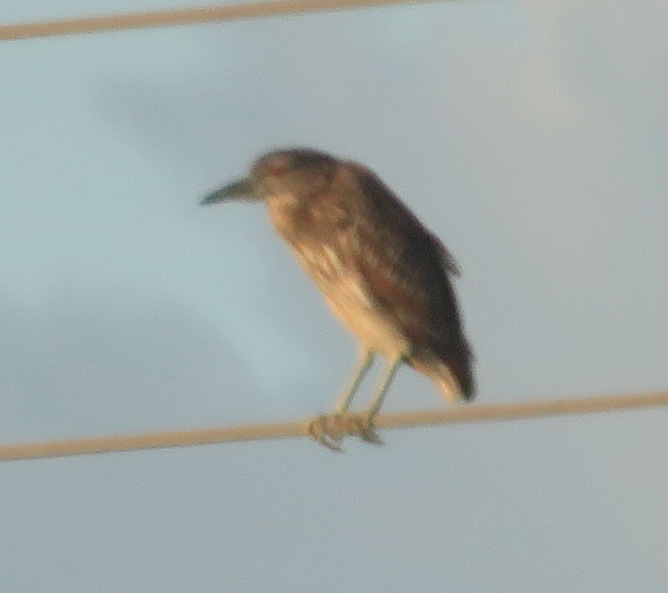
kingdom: Animalia
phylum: Chordata
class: Aves
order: Pelecaniformes
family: Ardeidae
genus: Nycticorax
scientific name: Nycticorax nycticorax
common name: Black-crowned night heron
